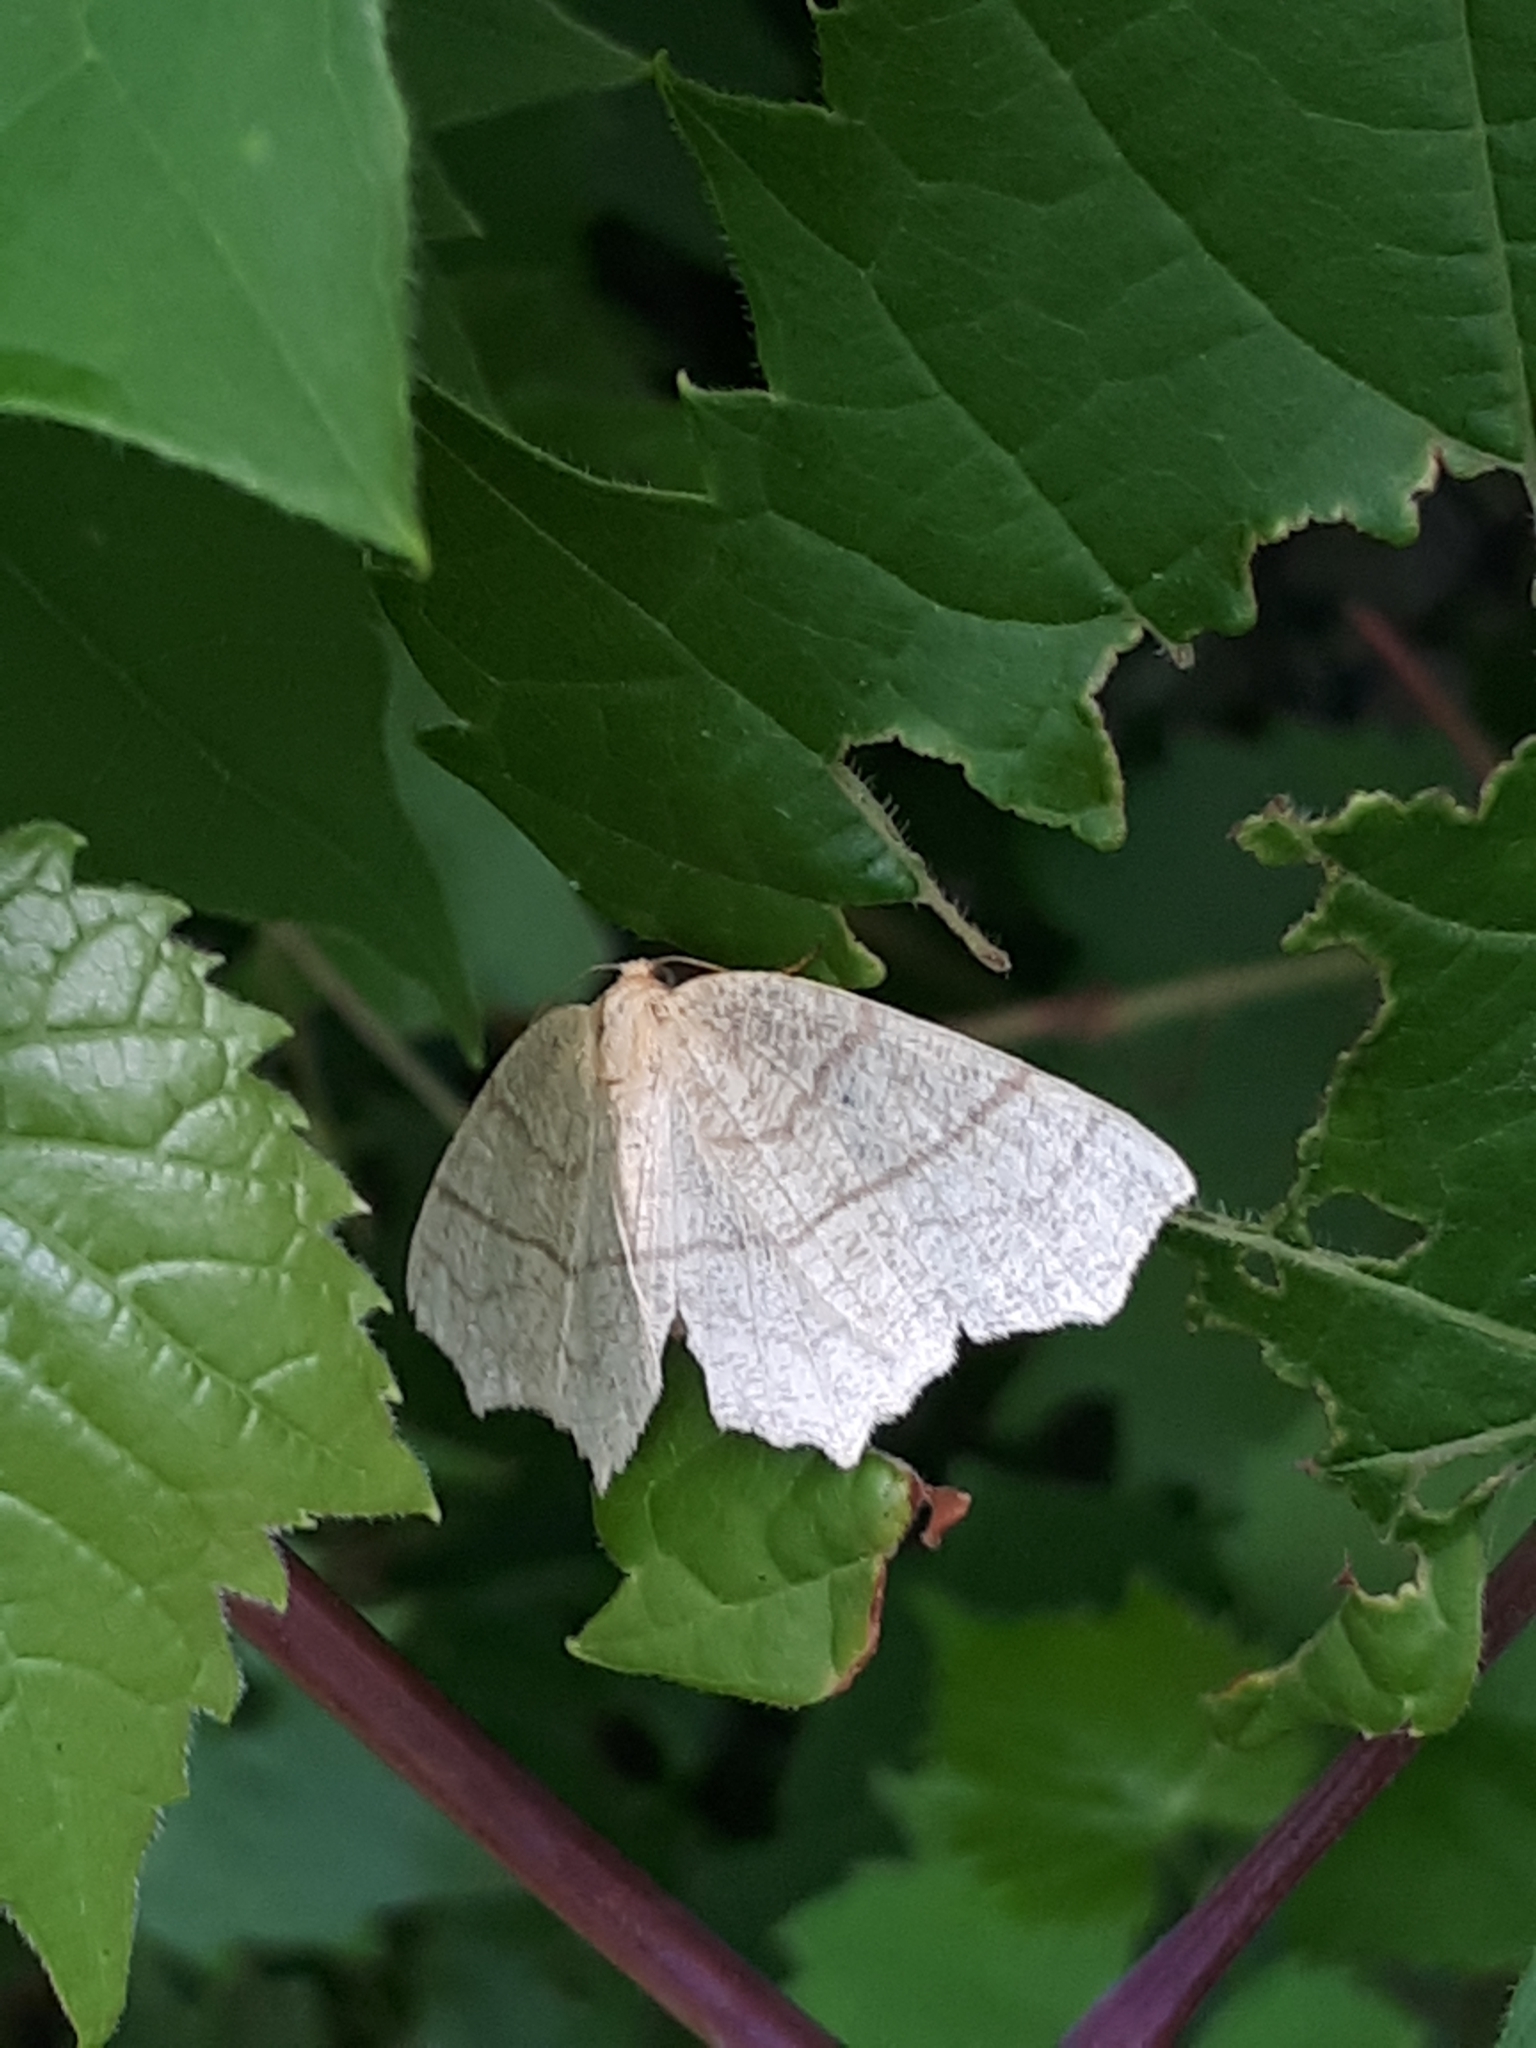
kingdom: Animalia
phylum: Arthropoda
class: Insecta
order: Lepidoptera
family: Geometridae
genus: Besma
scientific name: Besma quercivoraria
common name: Oak besma
